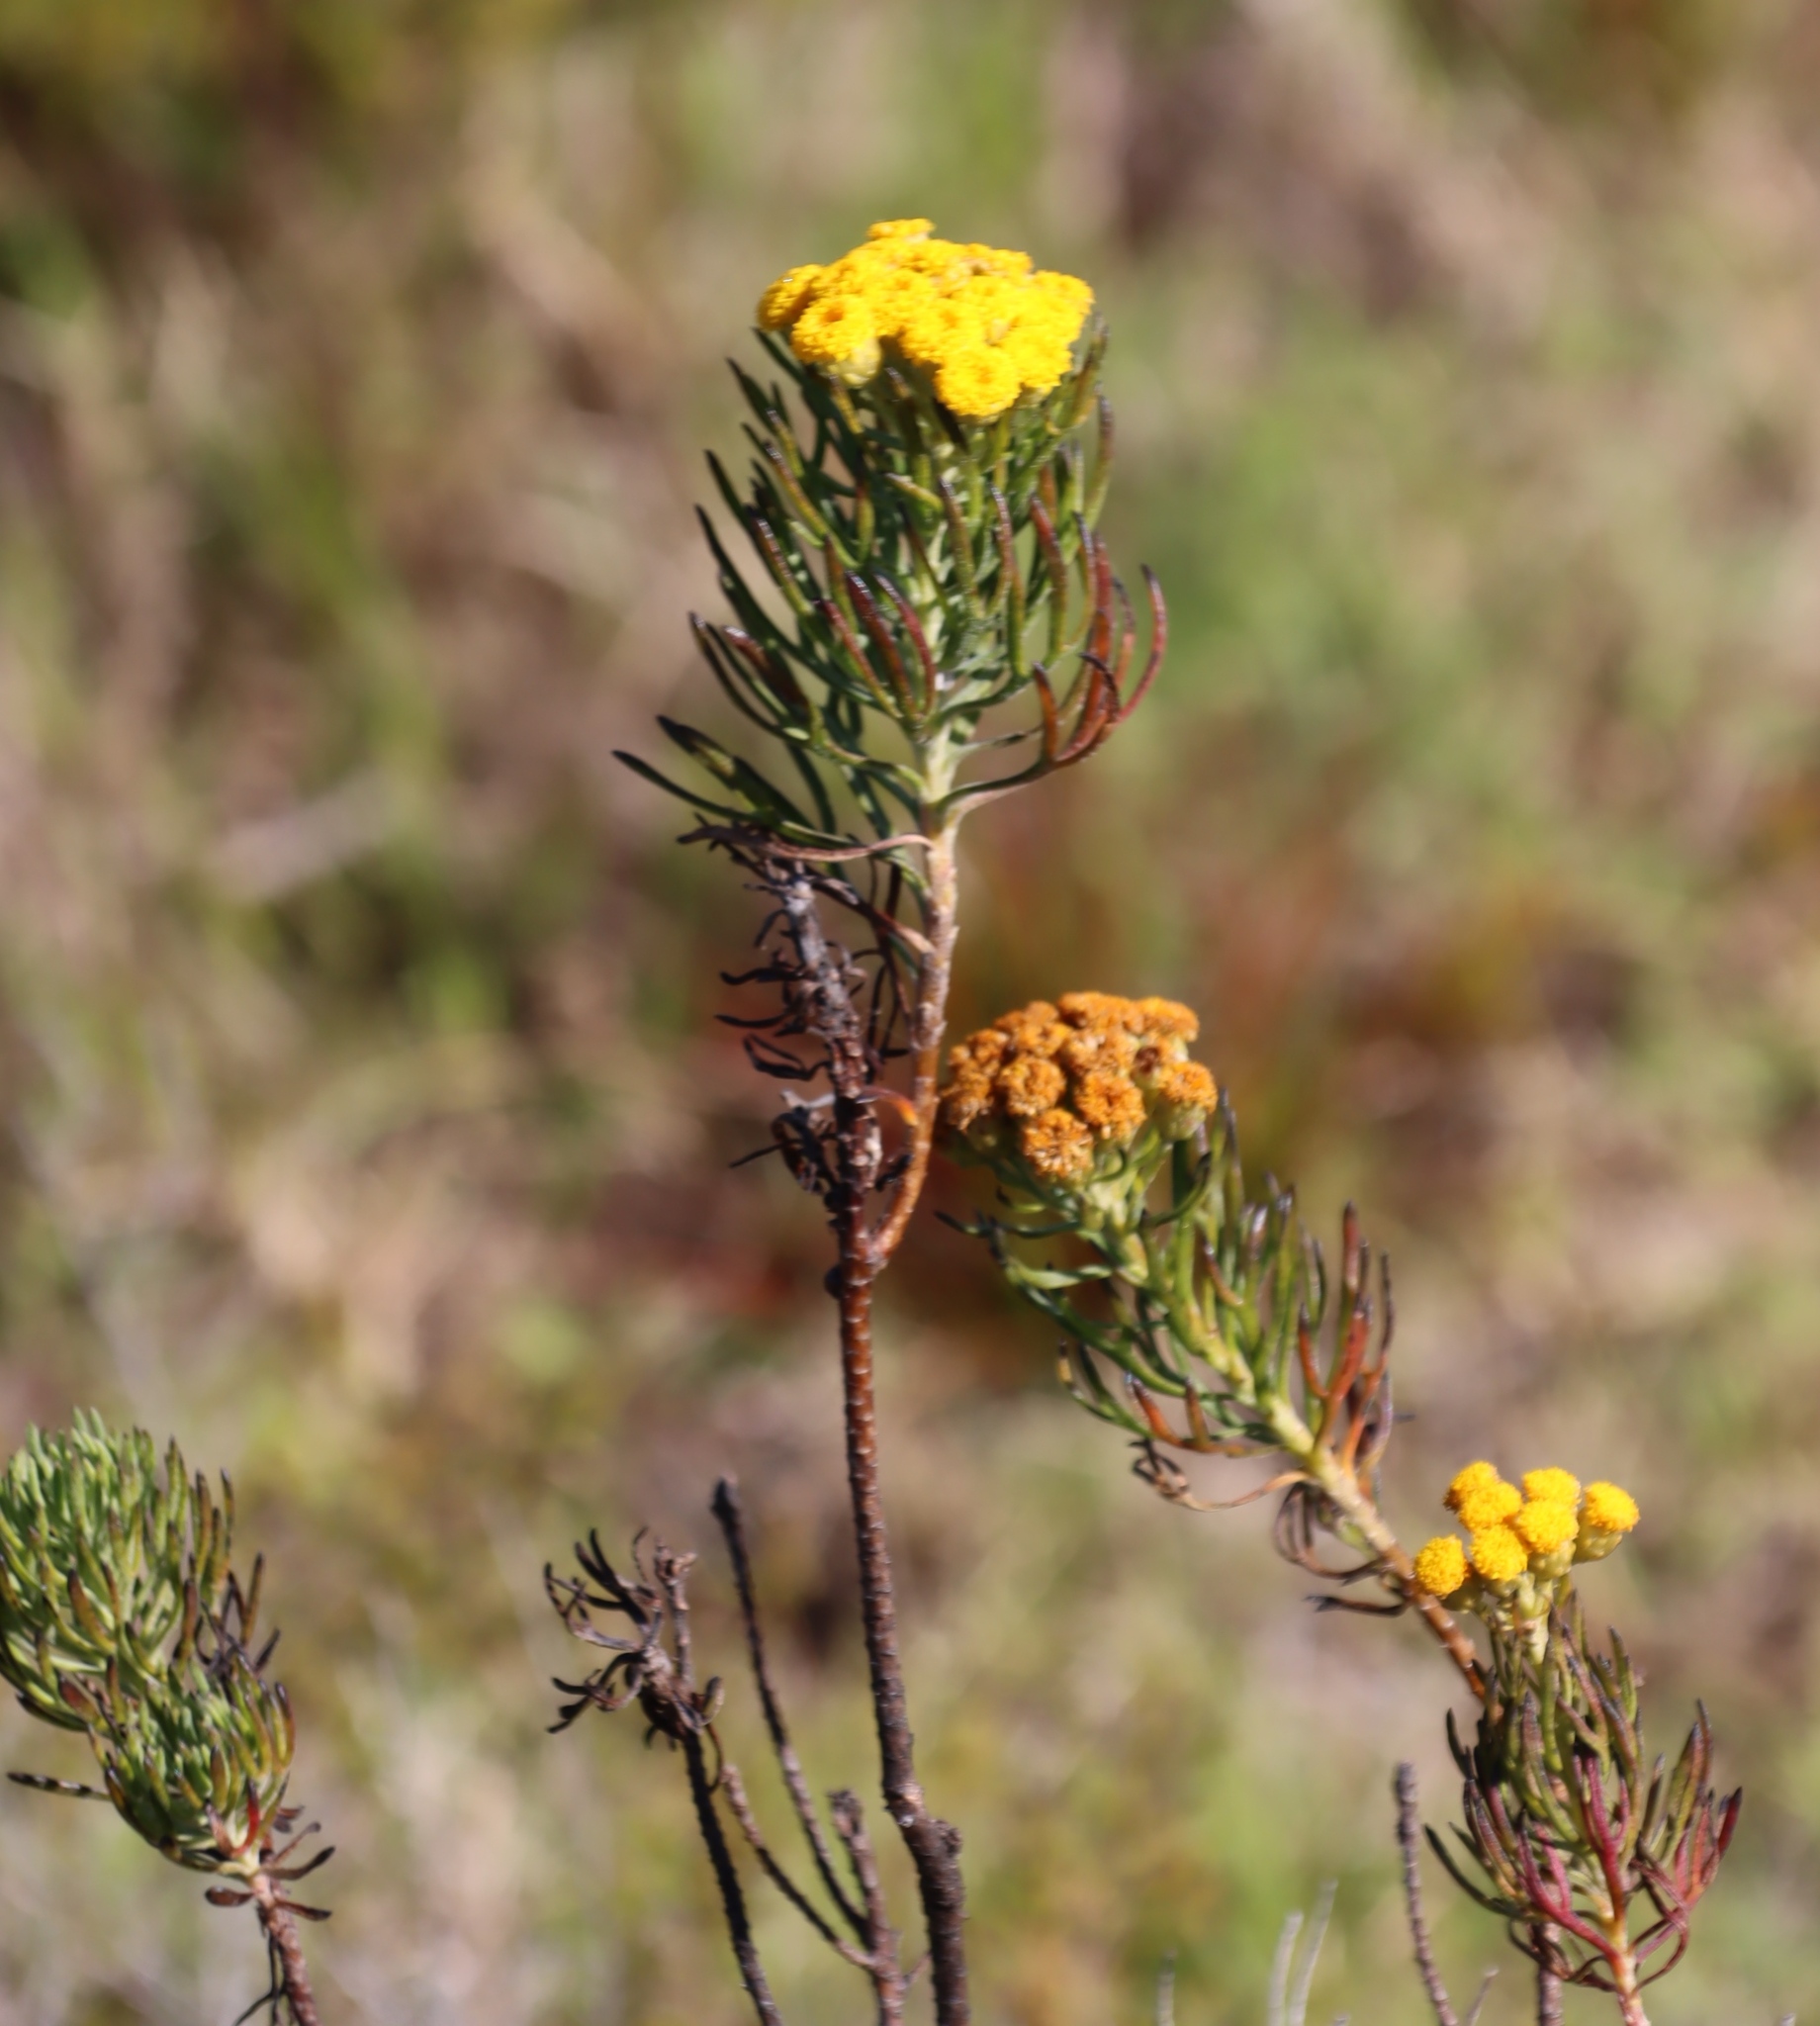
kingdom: Plantae
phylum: Tracheophyta
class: Magnoliopsida
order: Asterales
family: Asteraceae
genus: Athanasia
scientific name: Athanasia crithmifolia
